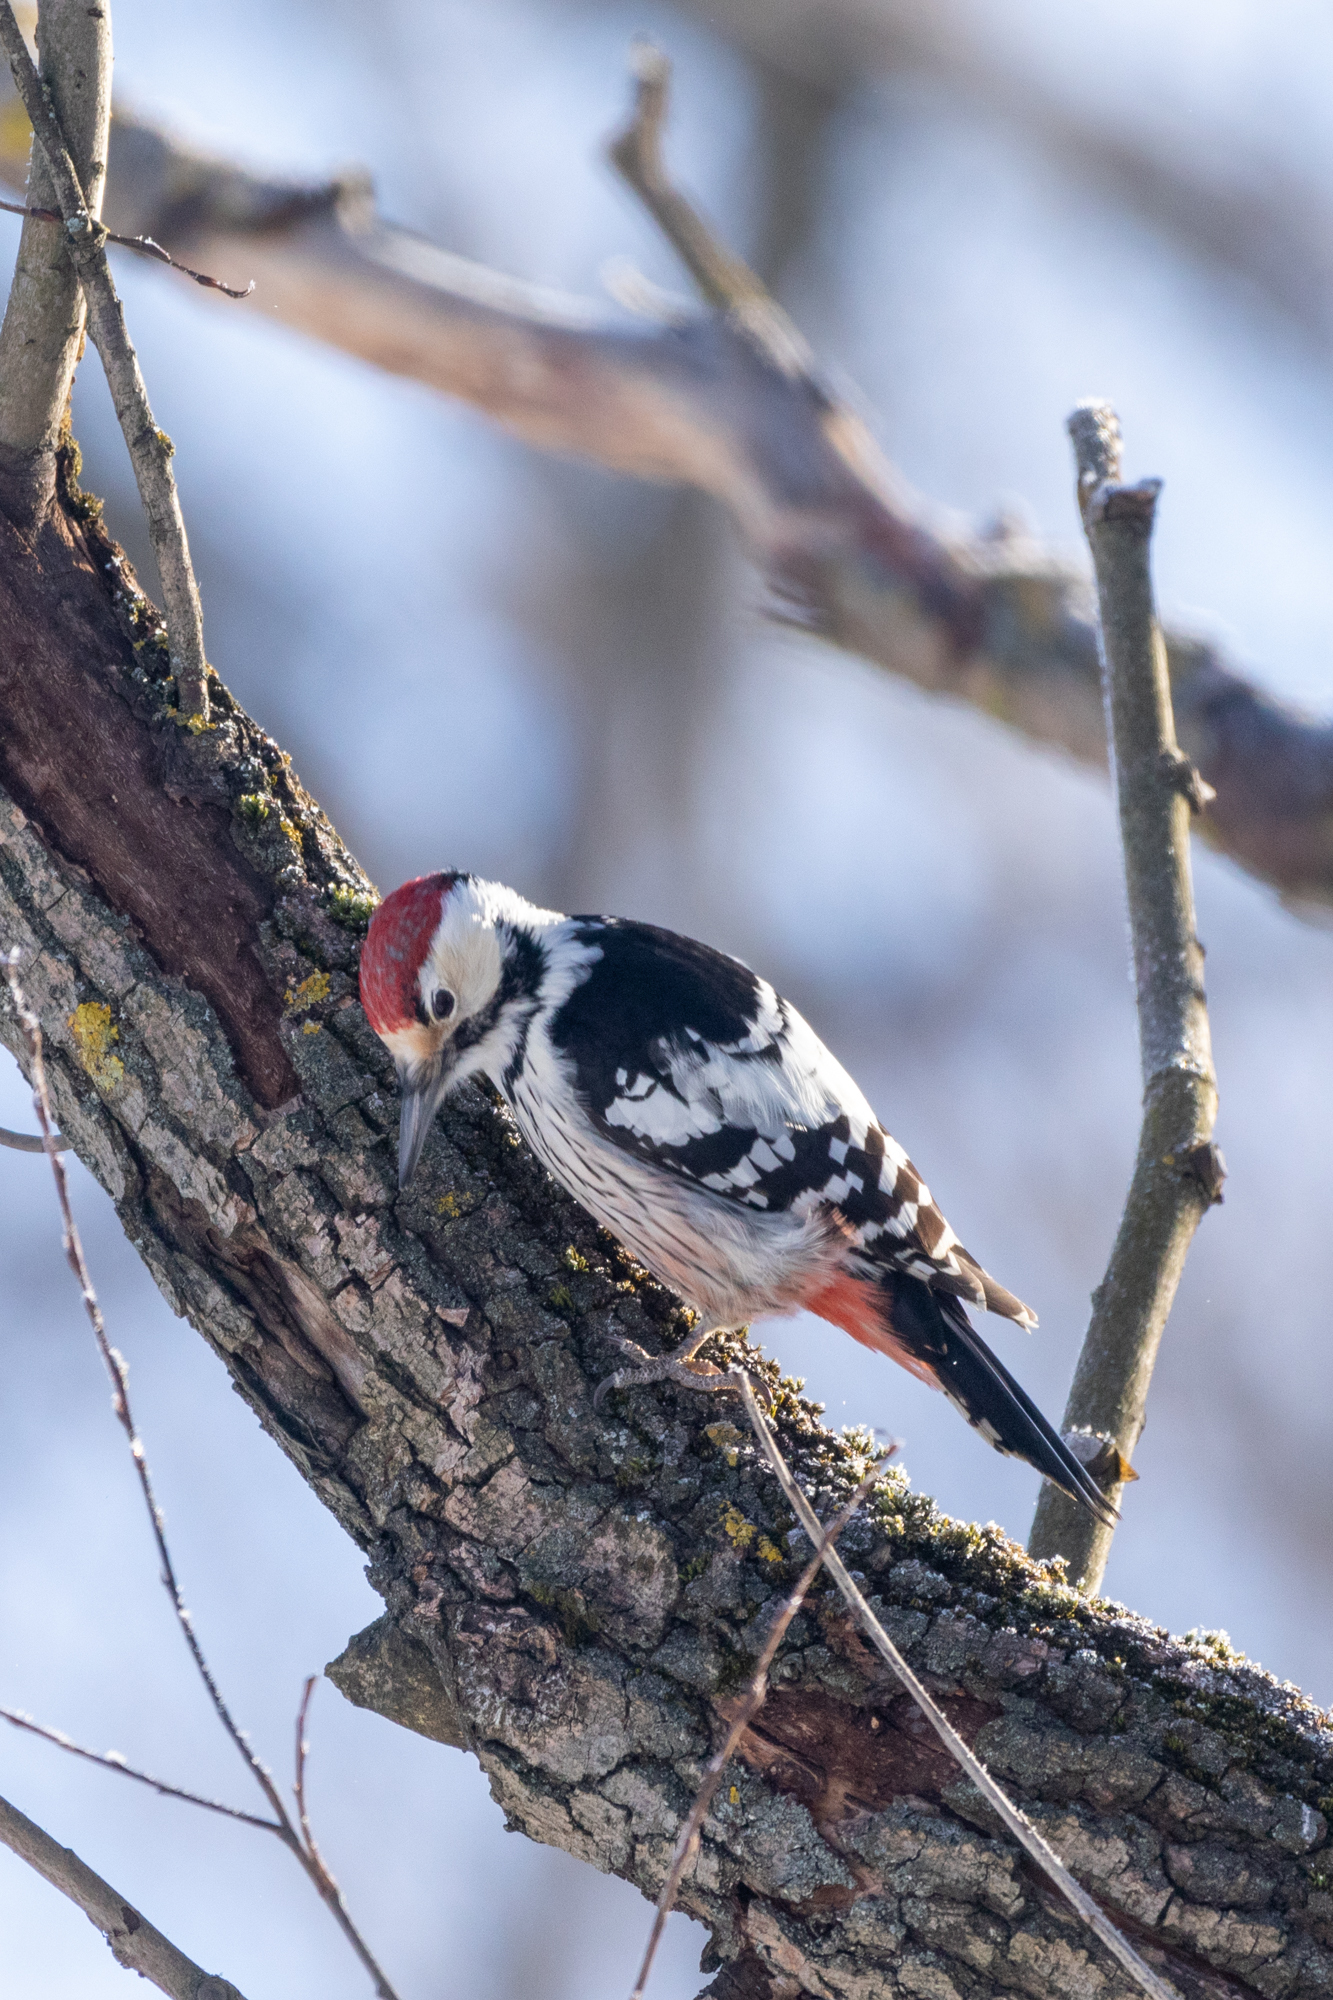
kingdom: Animalia
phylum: Chordata
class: Aves
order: Piciformes
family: Picidae
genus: Dendrocopos
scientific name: Dendrocopos leucotos
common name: White-backed woodpecker
